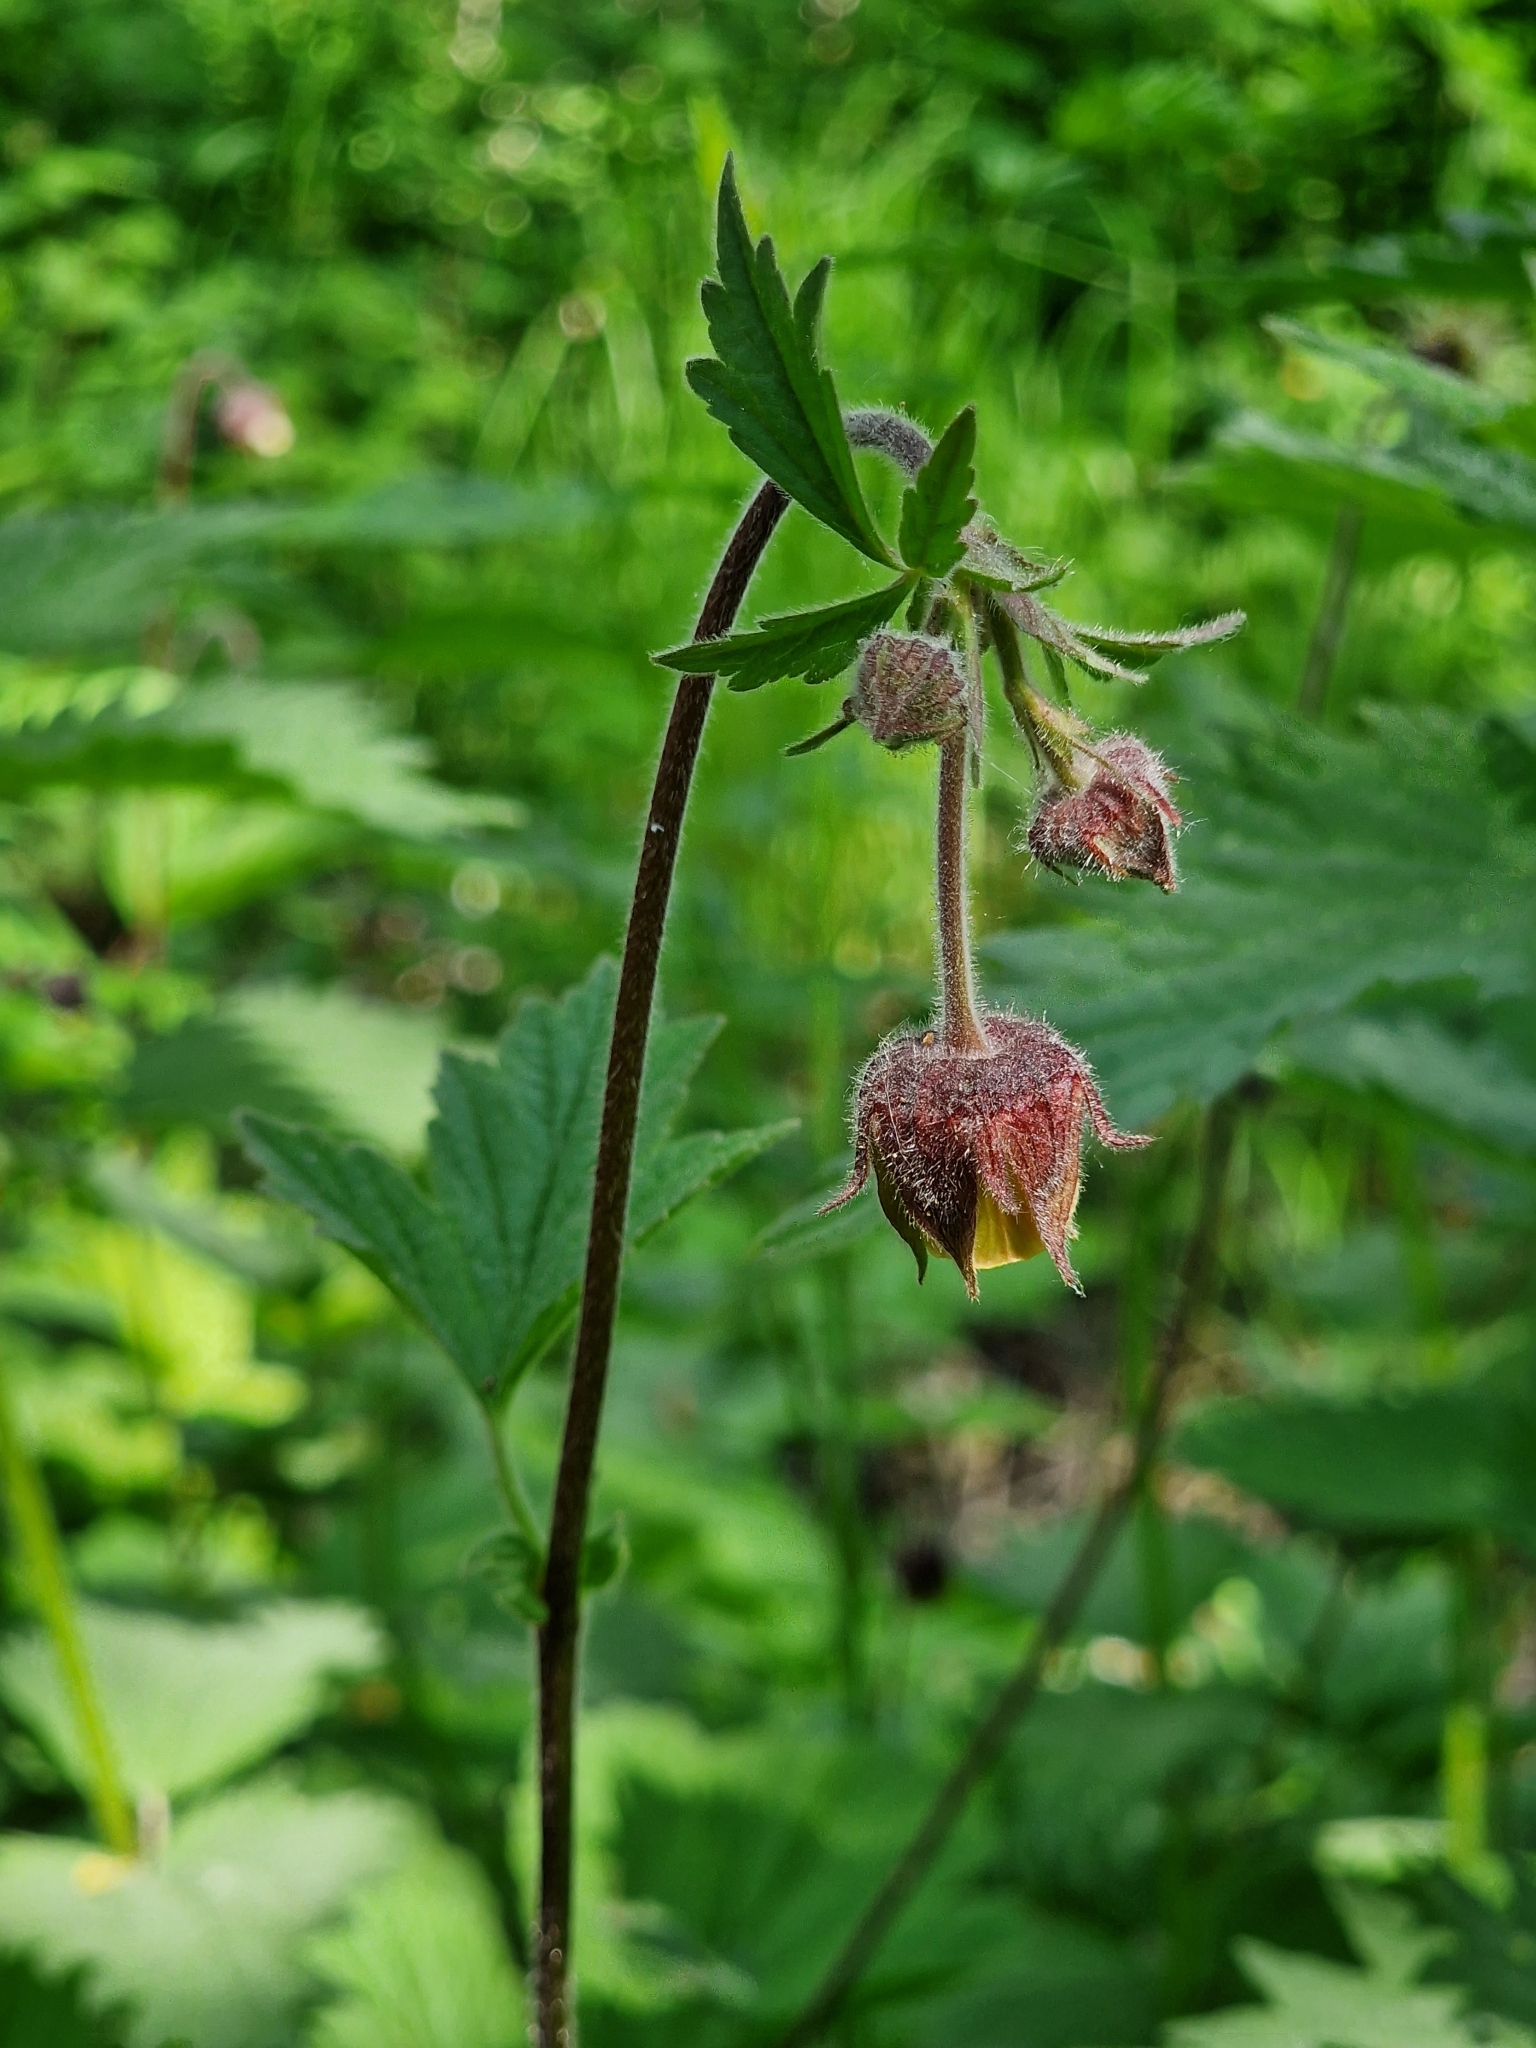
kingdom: Plantae
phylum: Tracheophyta
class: Magnoliopsida
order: Rosales
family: Rosaceae
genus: Geum
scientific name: Geum rivale
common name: Water avens
